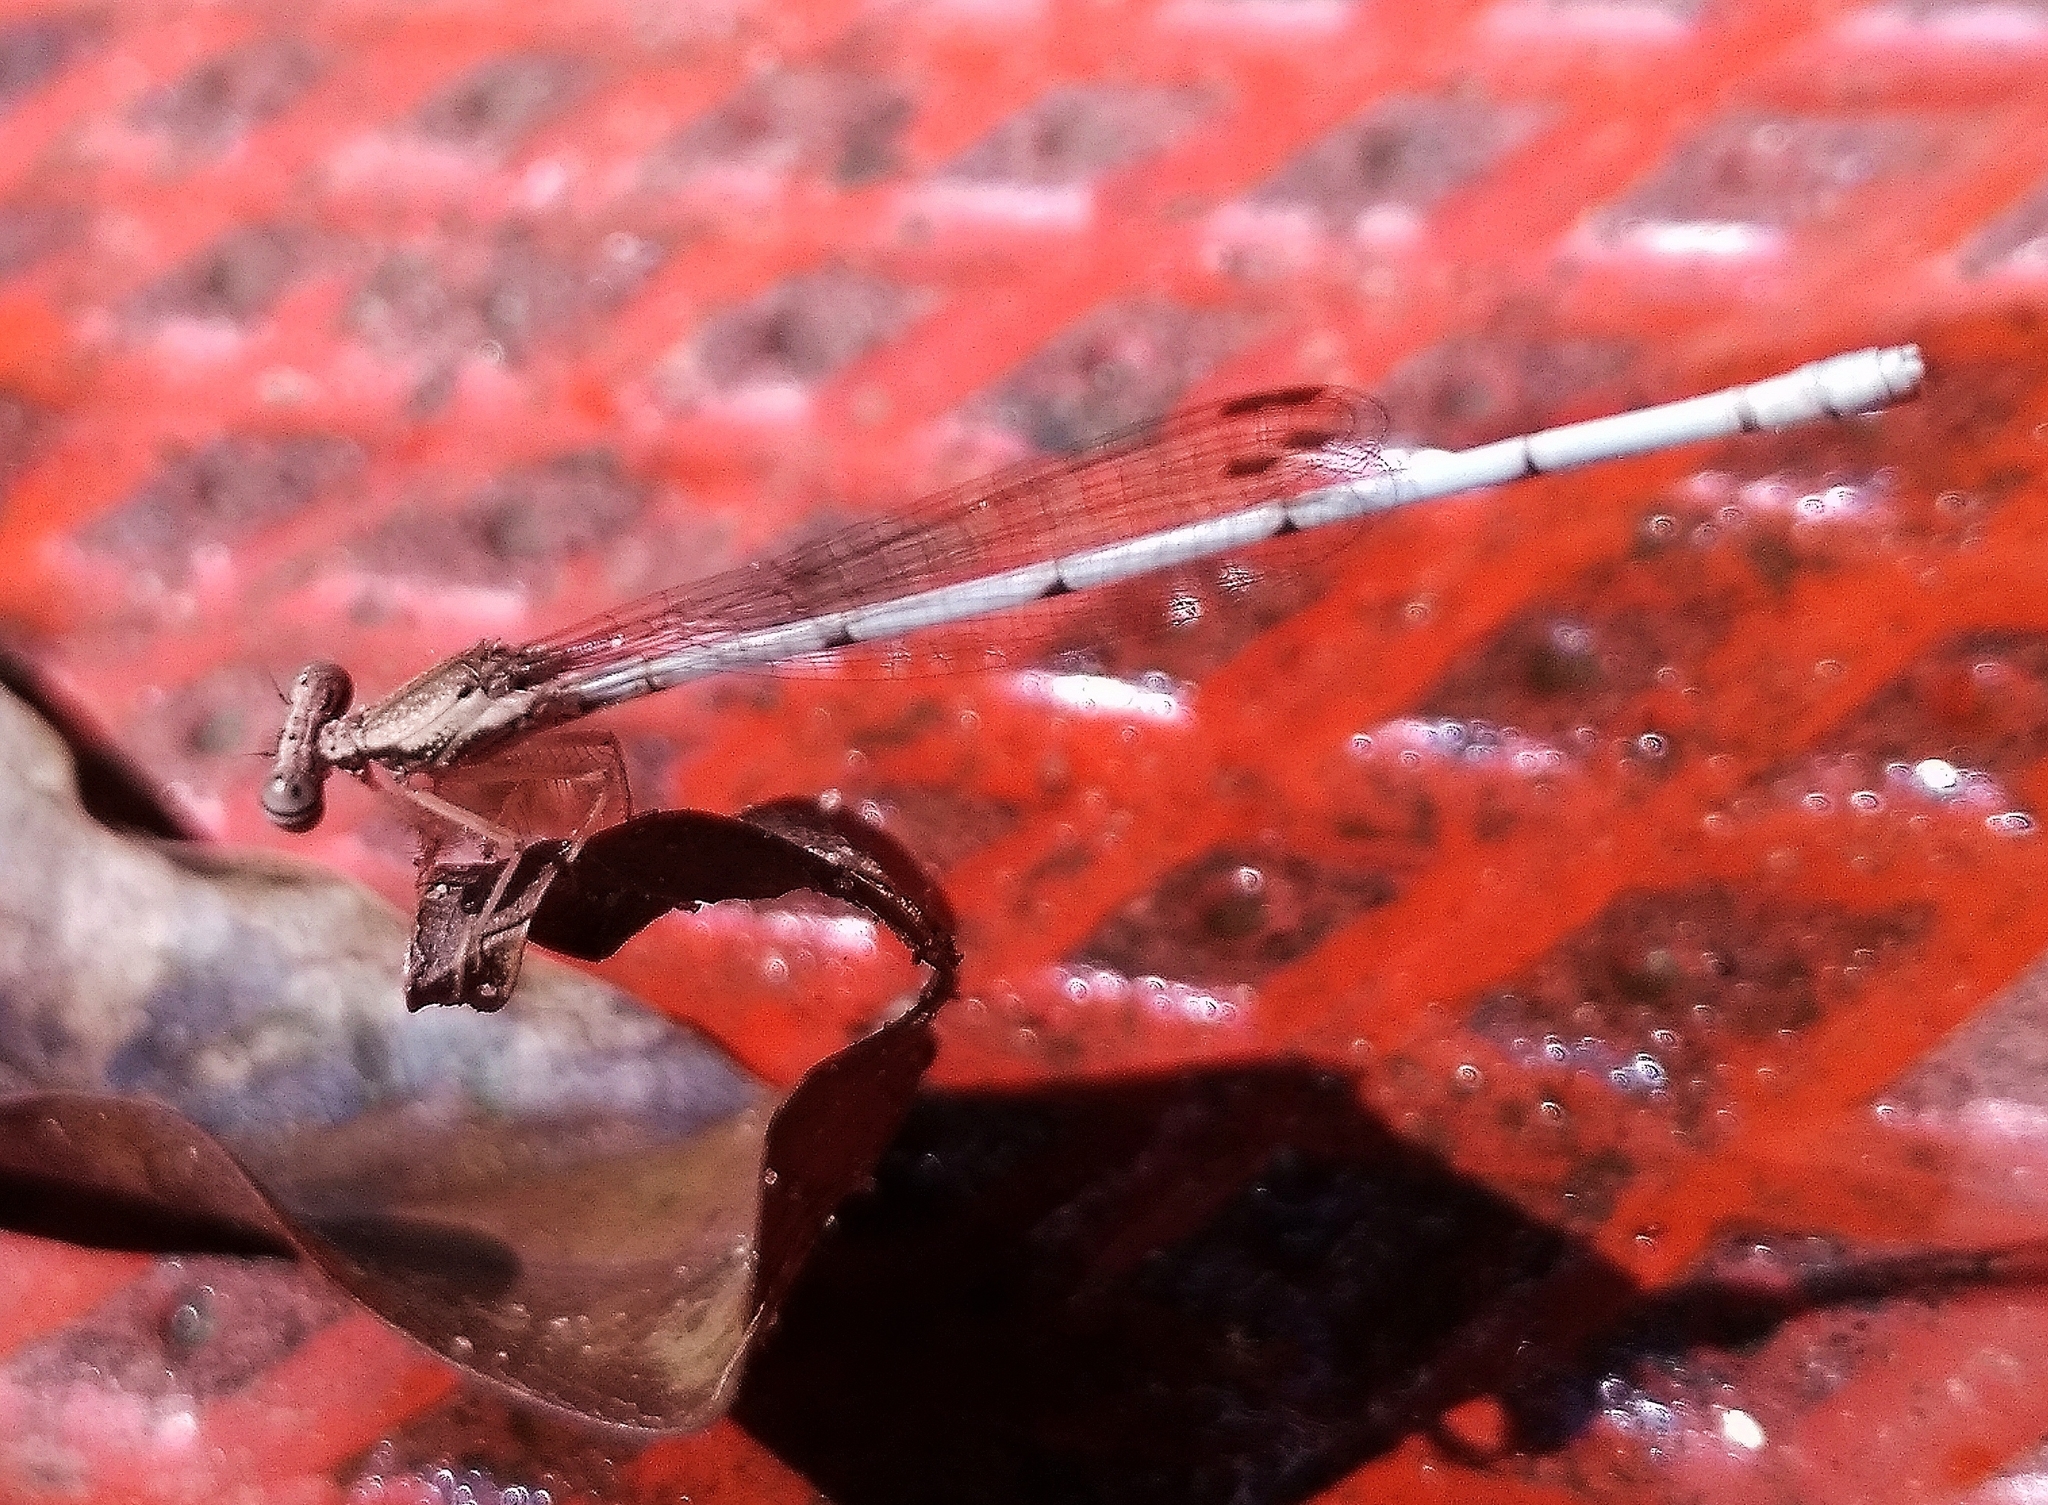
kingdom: Animalia
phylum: Arthropoda
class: Insecta
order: Odonata
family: Platycnemididae
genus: Copera
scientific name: Copera marginipes
